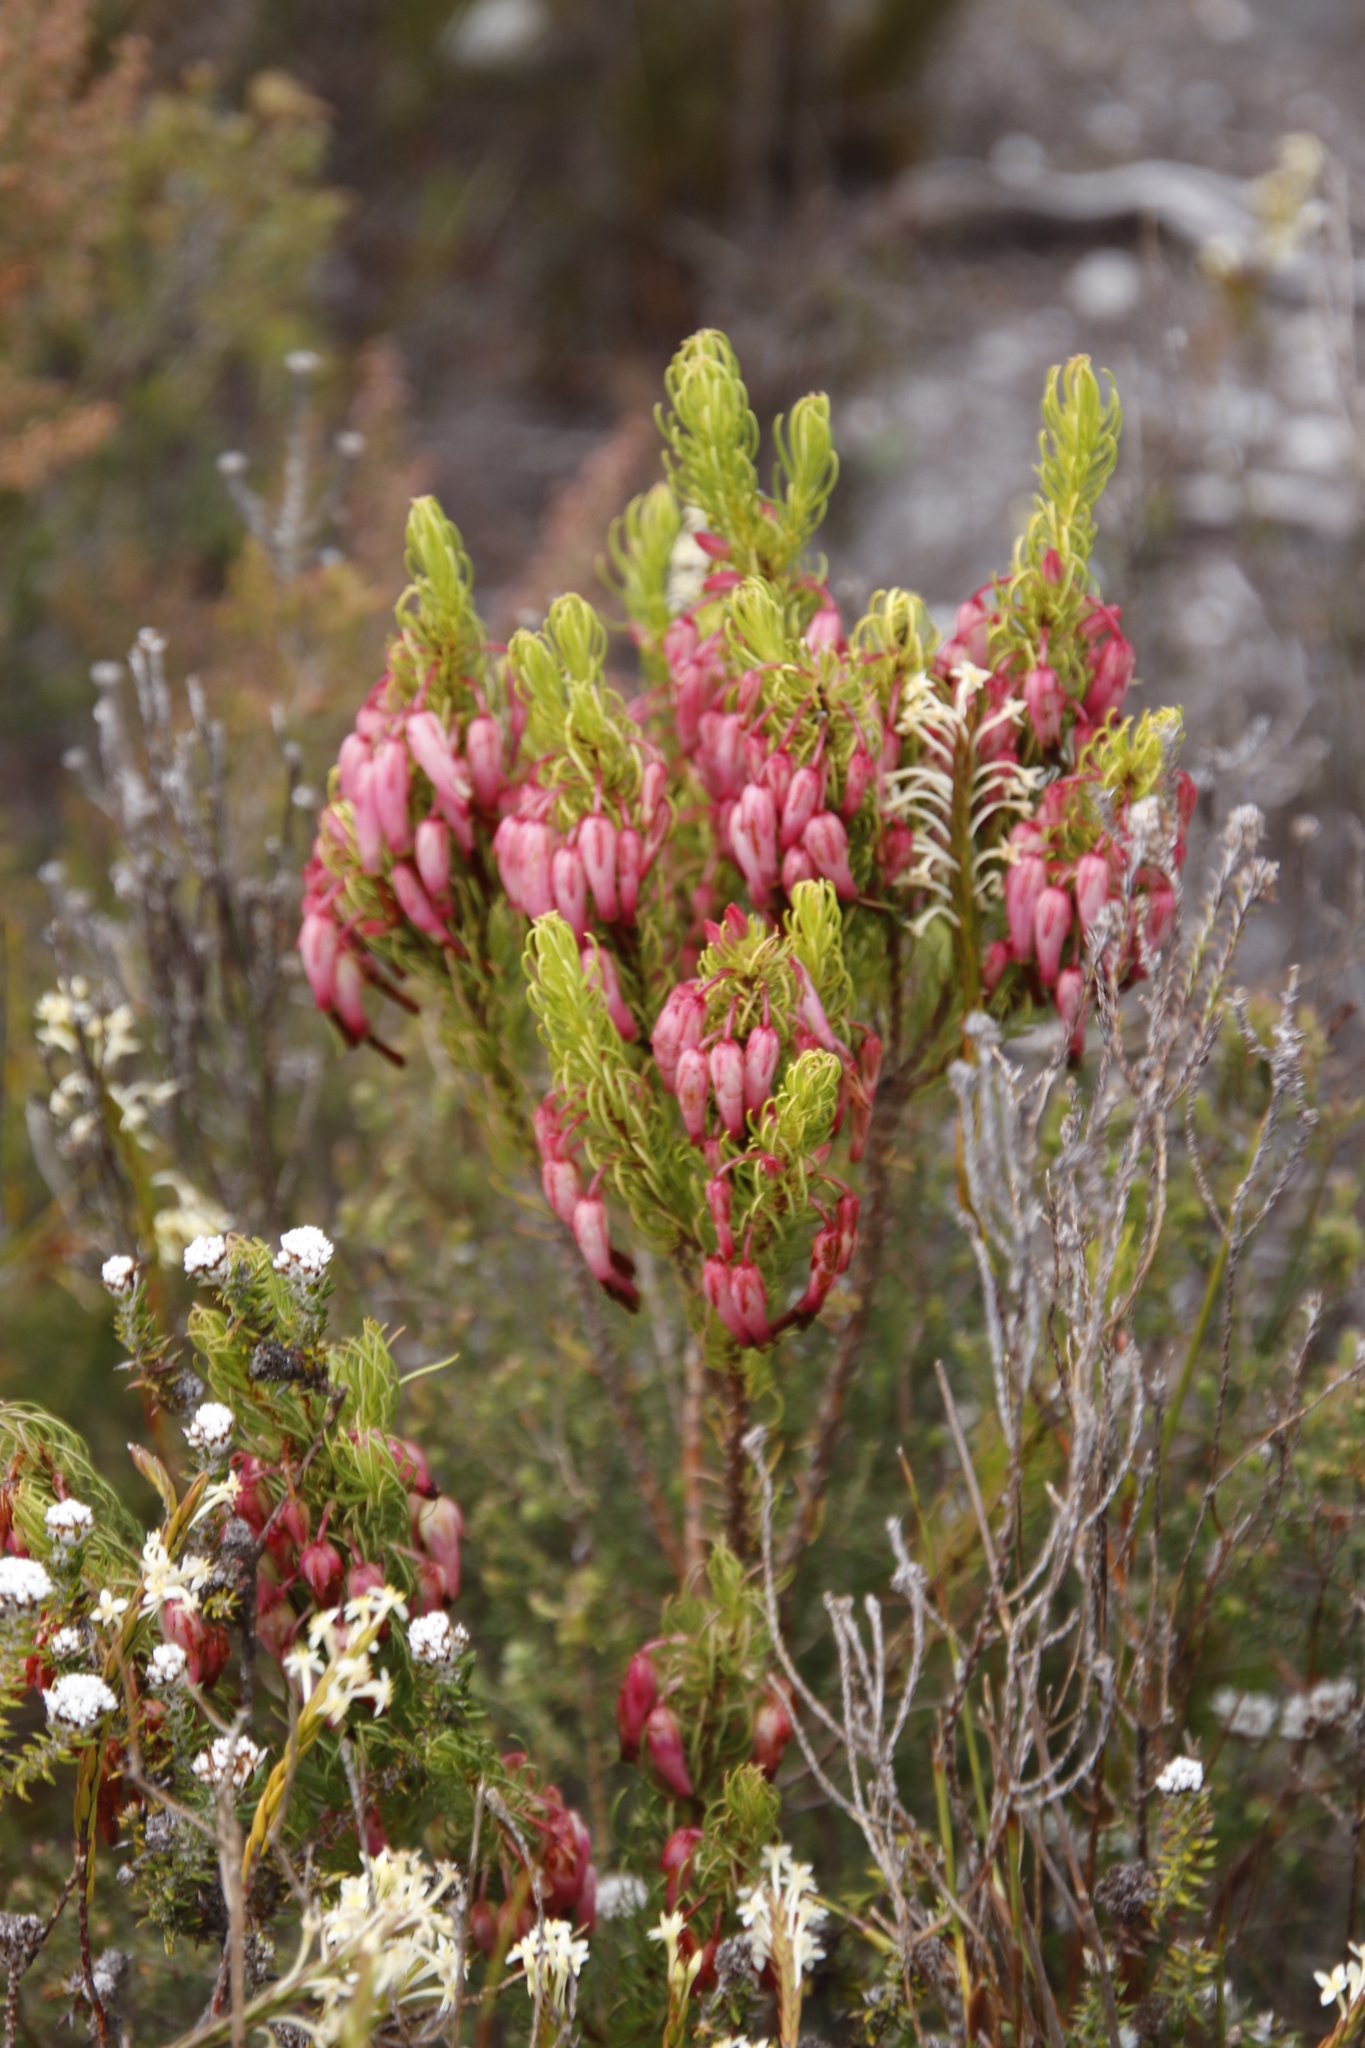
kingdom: Plantae
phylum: Tracheophyta
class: Magnoliopsida
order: Ericales
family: Ericaceae
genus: Erica
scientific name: Erica plukenetii
